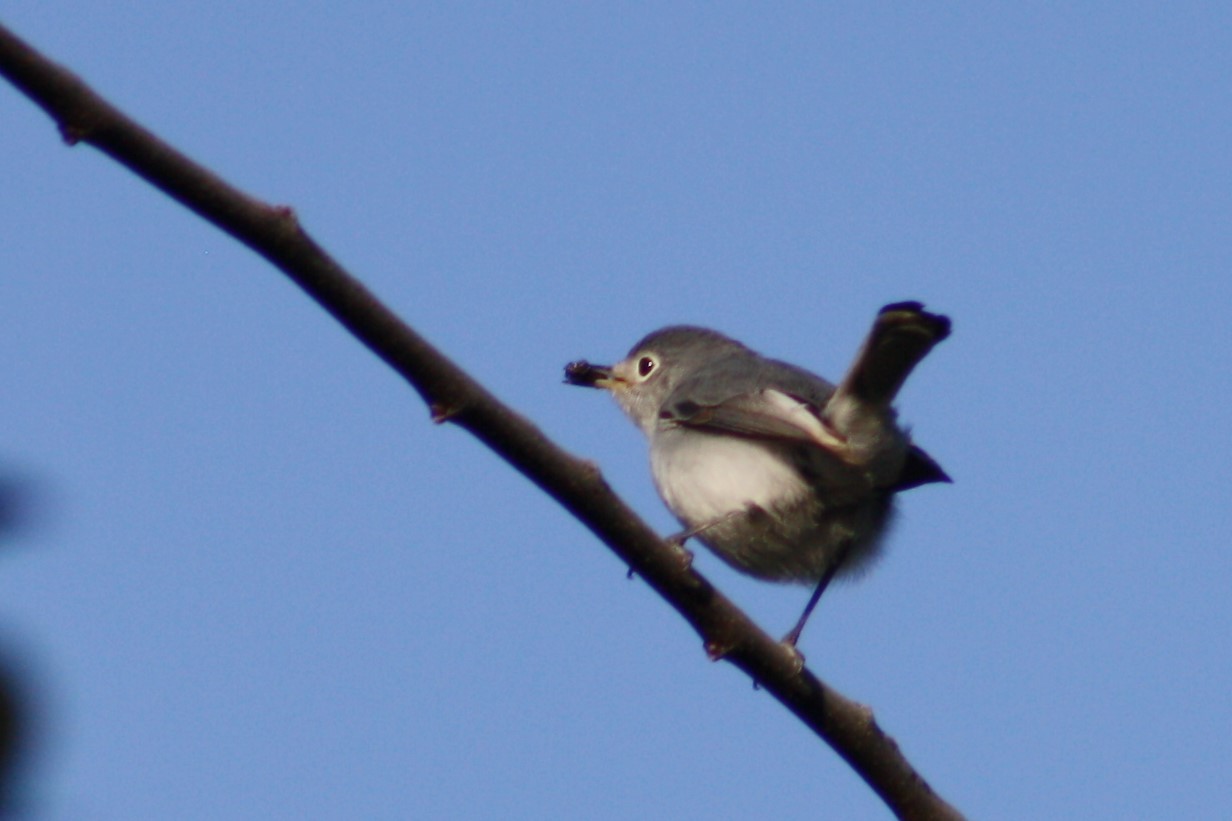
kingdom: Animalia
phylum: Chordata
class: Aves
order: Passeriformes
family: Polioptilidae
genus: Polioptila
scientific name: Polioptila melanura
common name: Black-tailed gnatcatcher
